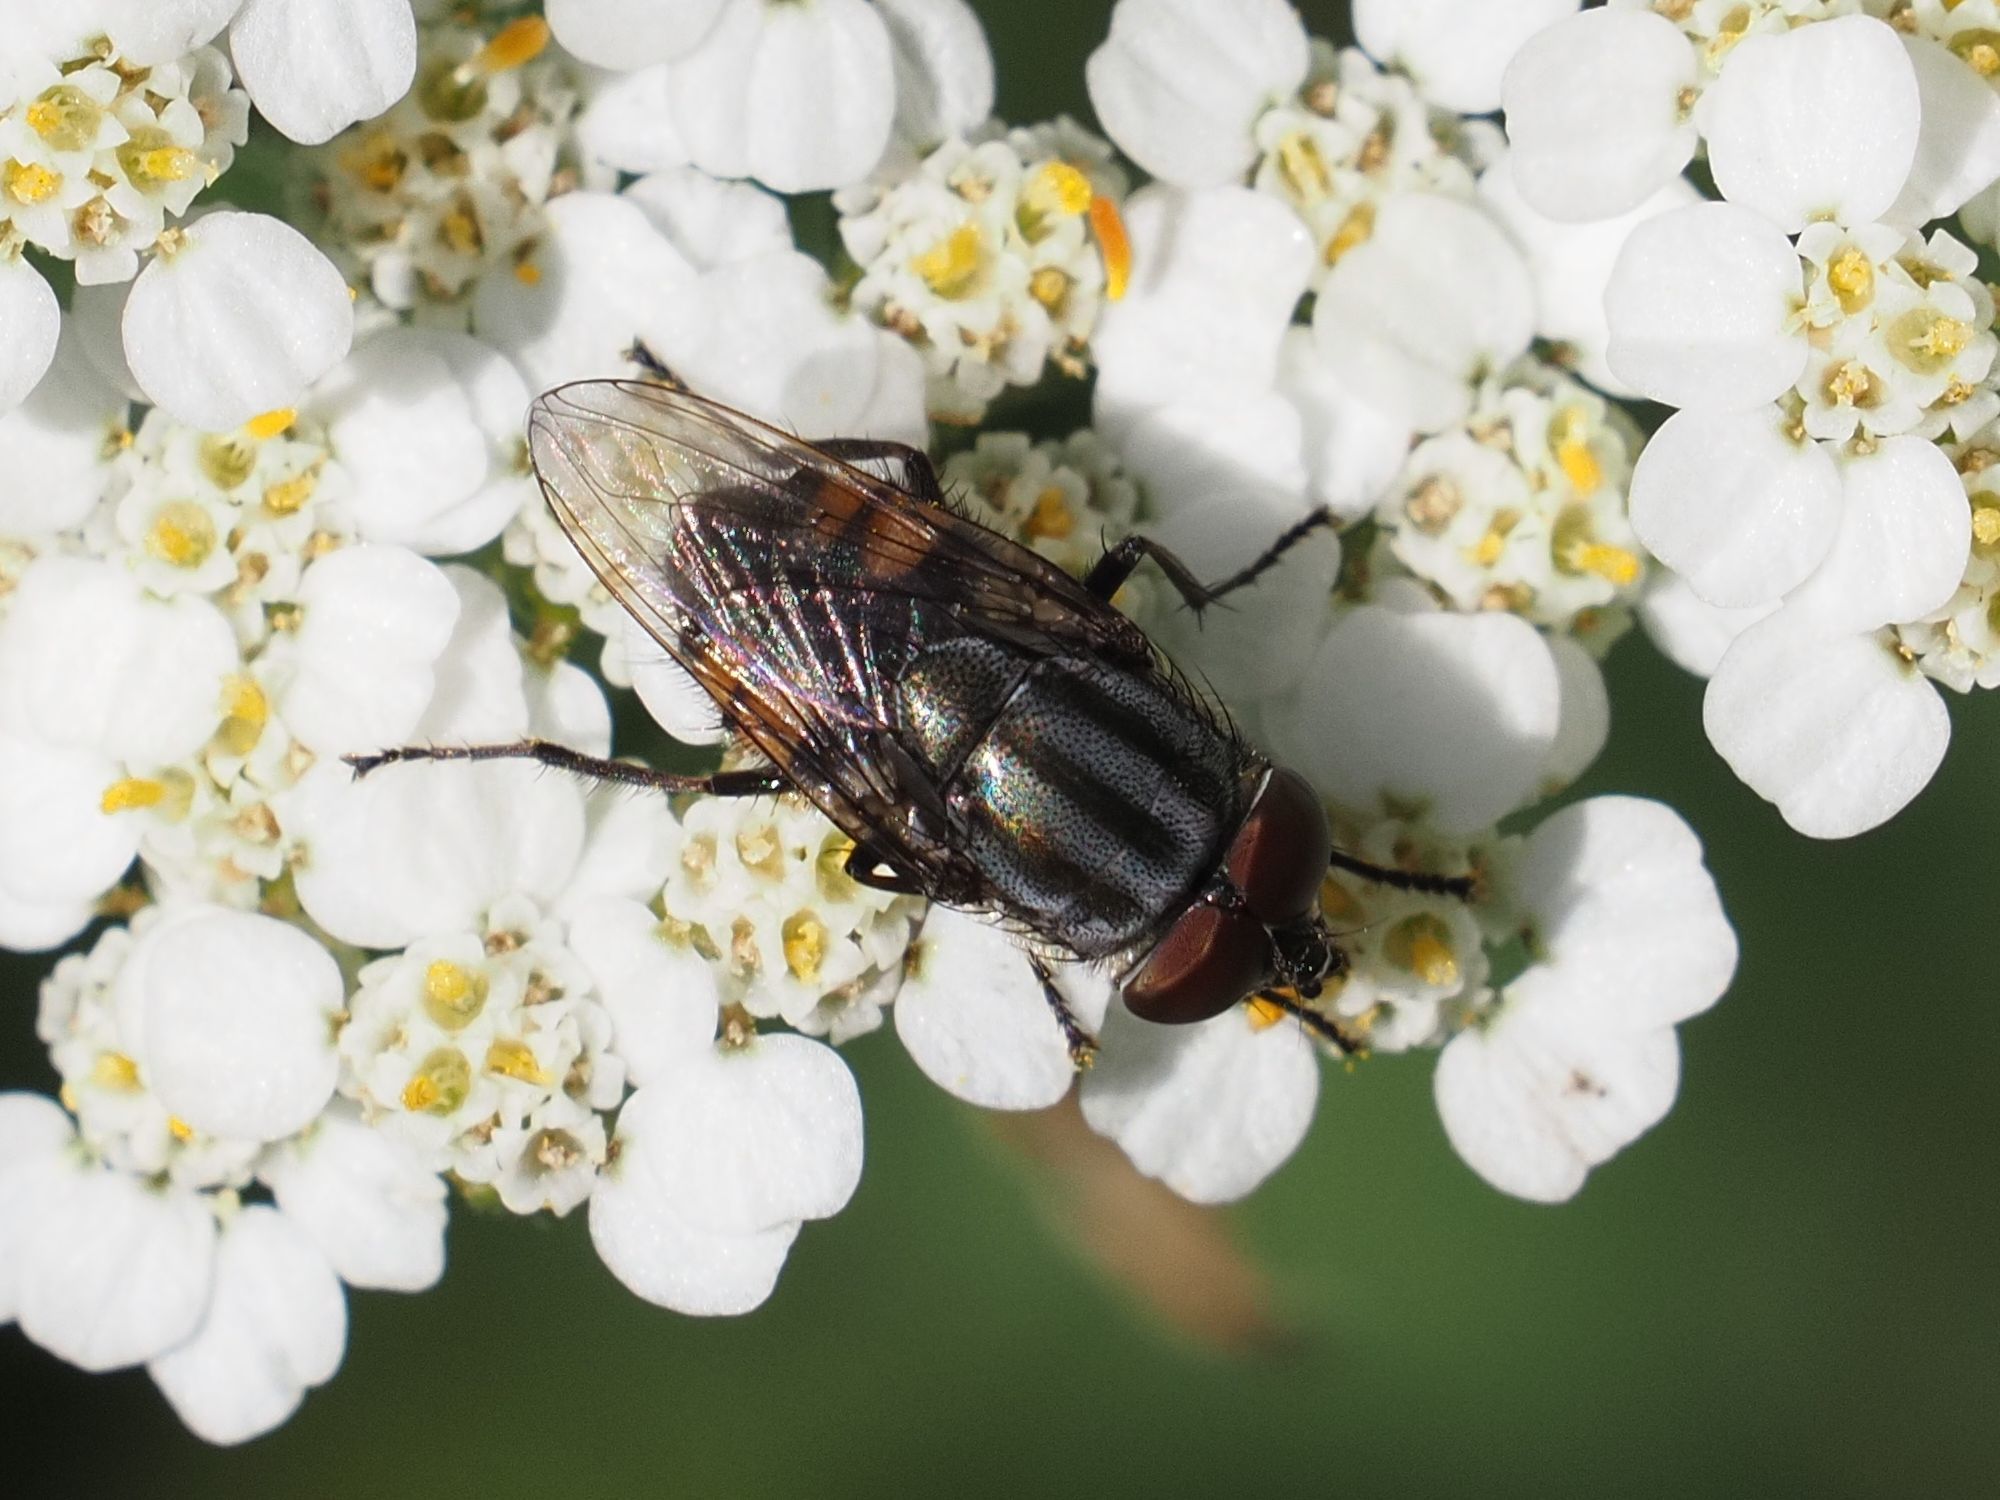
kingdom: Animalia
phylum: Arthropoda
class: Insecta
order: Diptera
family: Calliphoridae
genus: Stomorhina
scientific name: Stomorhina lunata
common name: Locust blowfly
